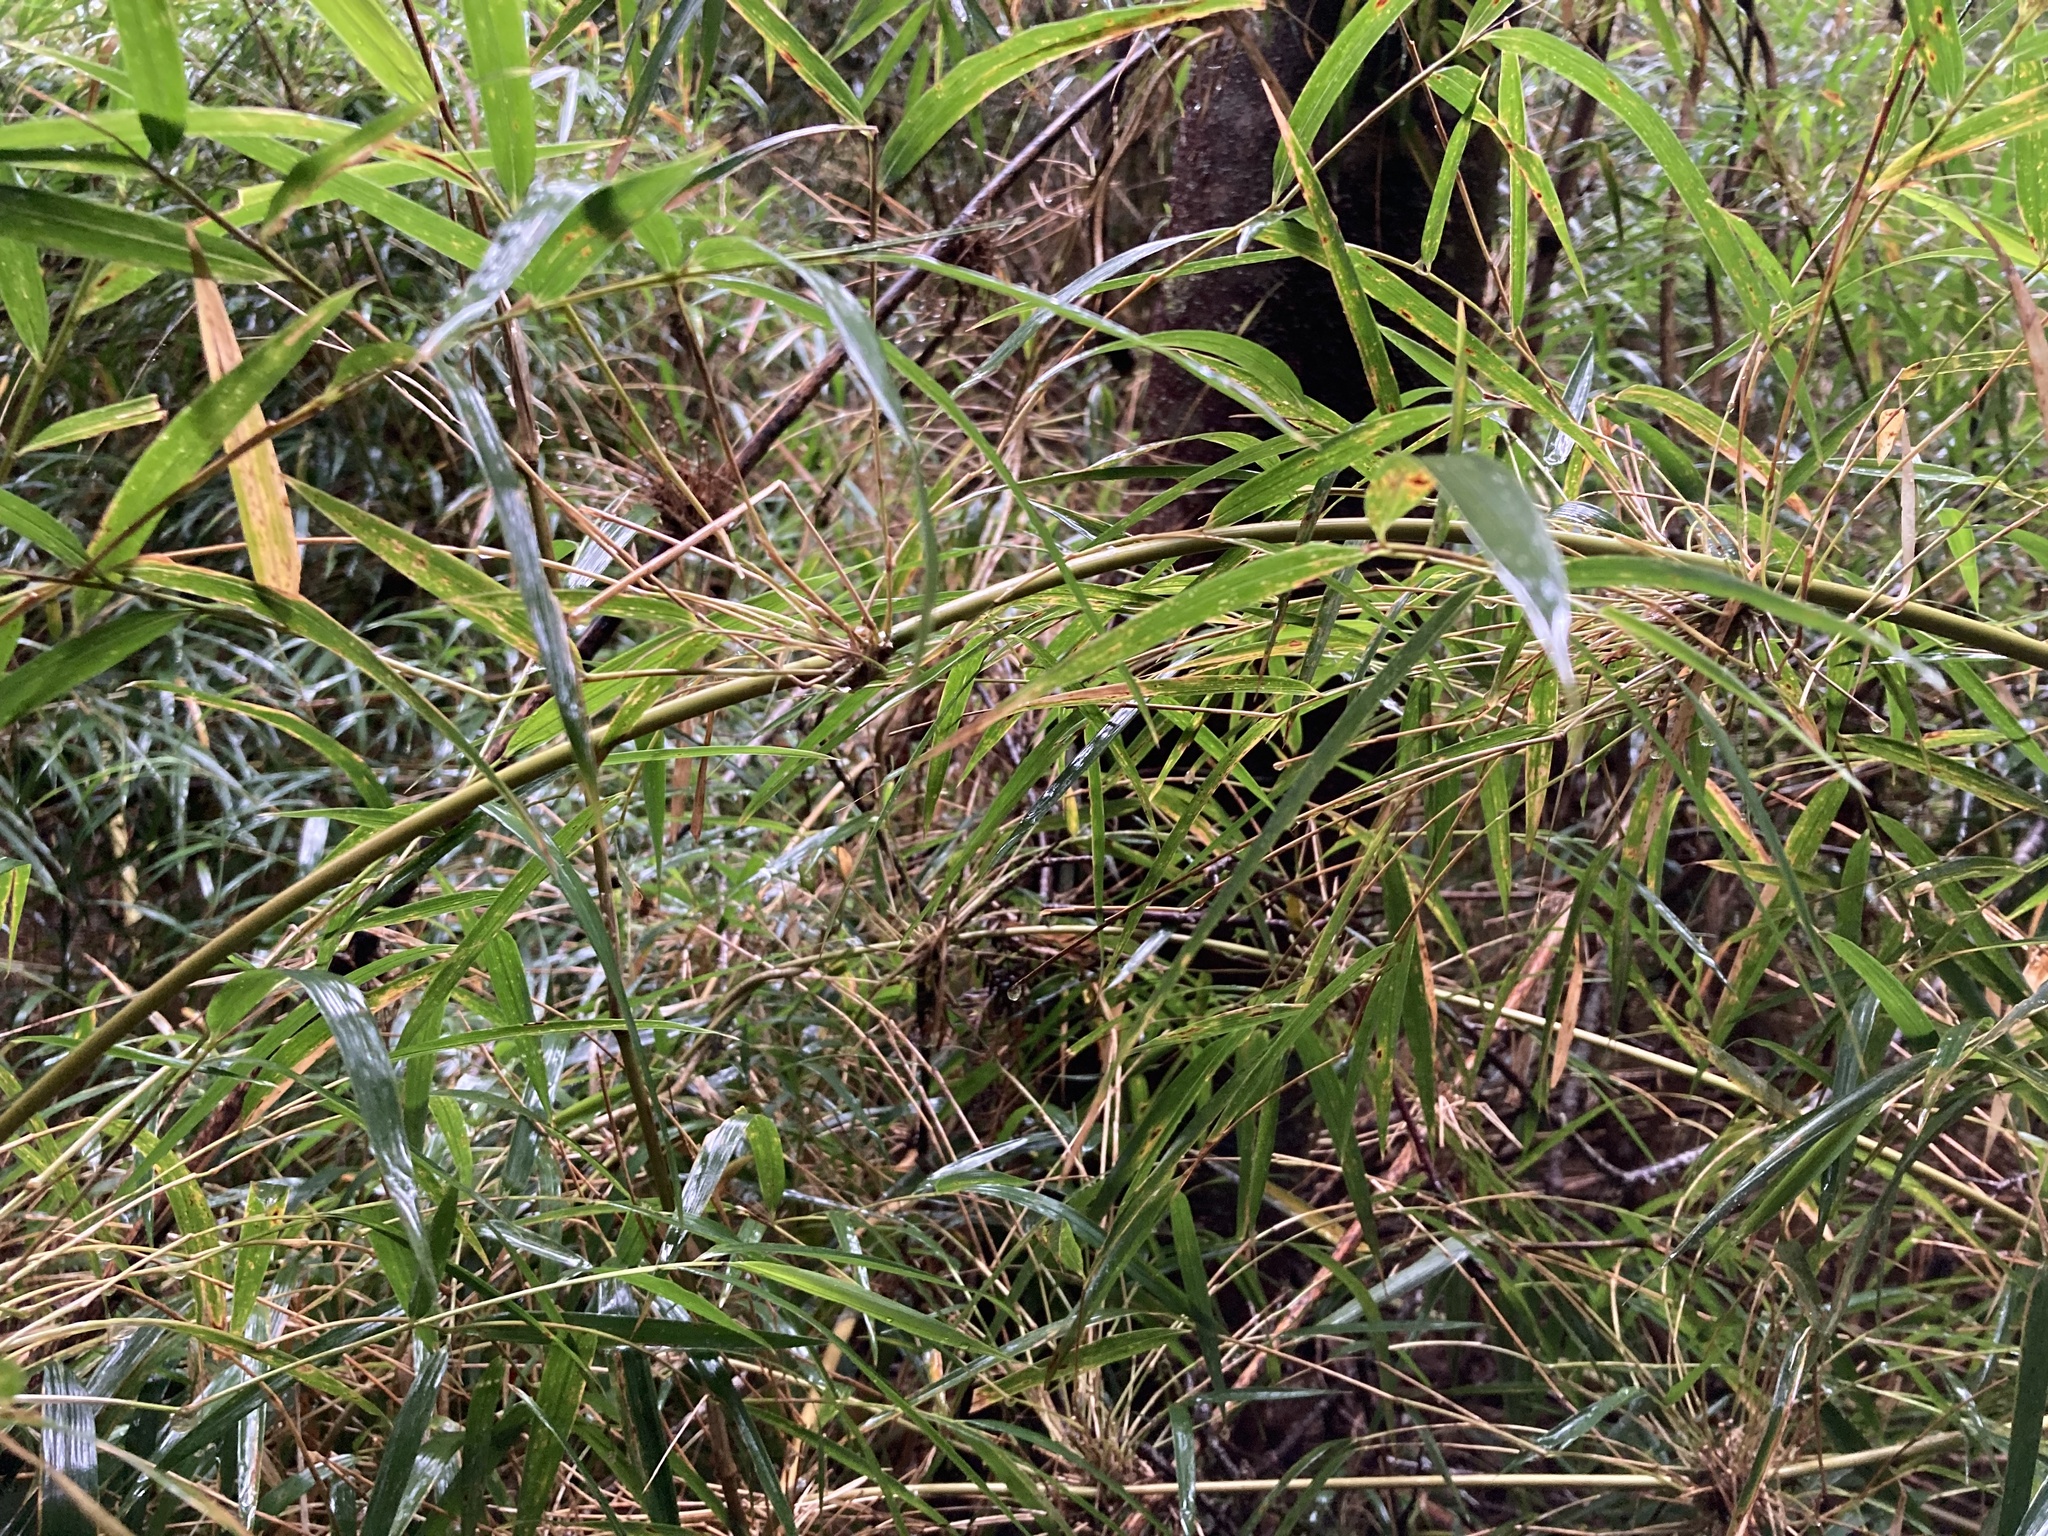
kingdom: Plantae
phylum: Tracheophyta
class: Liliopsida
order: Poales
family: Poaceae
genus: Chusquea
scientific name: Chusquea quila
